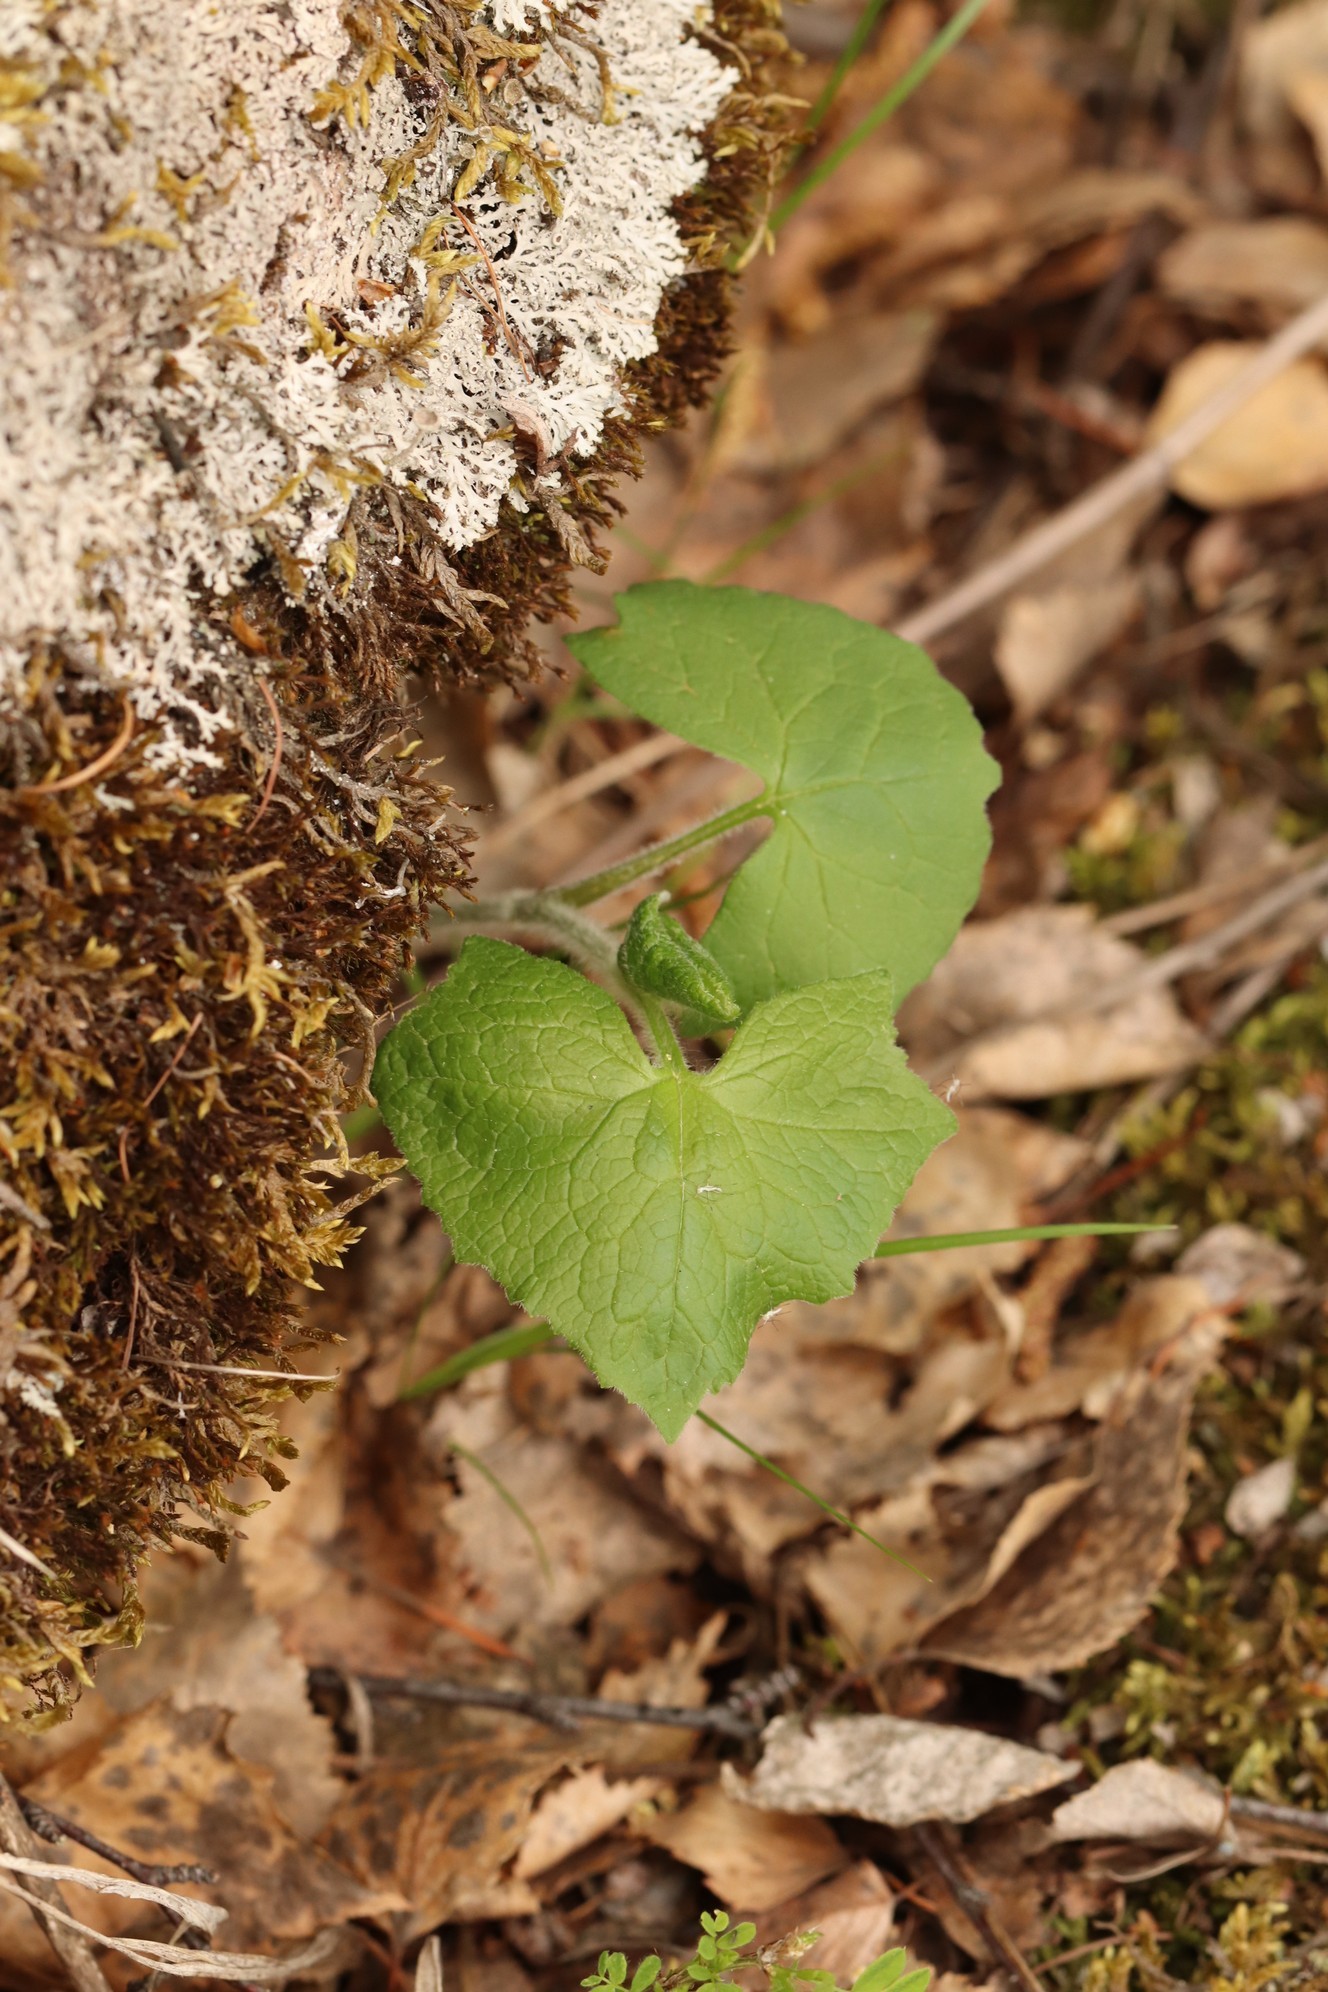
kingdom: Plantae
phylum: Tracheophyta
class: Magnoliopsida
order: Asterales
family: Asteraceae
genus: Parasenecio
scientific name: Parasenecio hastatus
